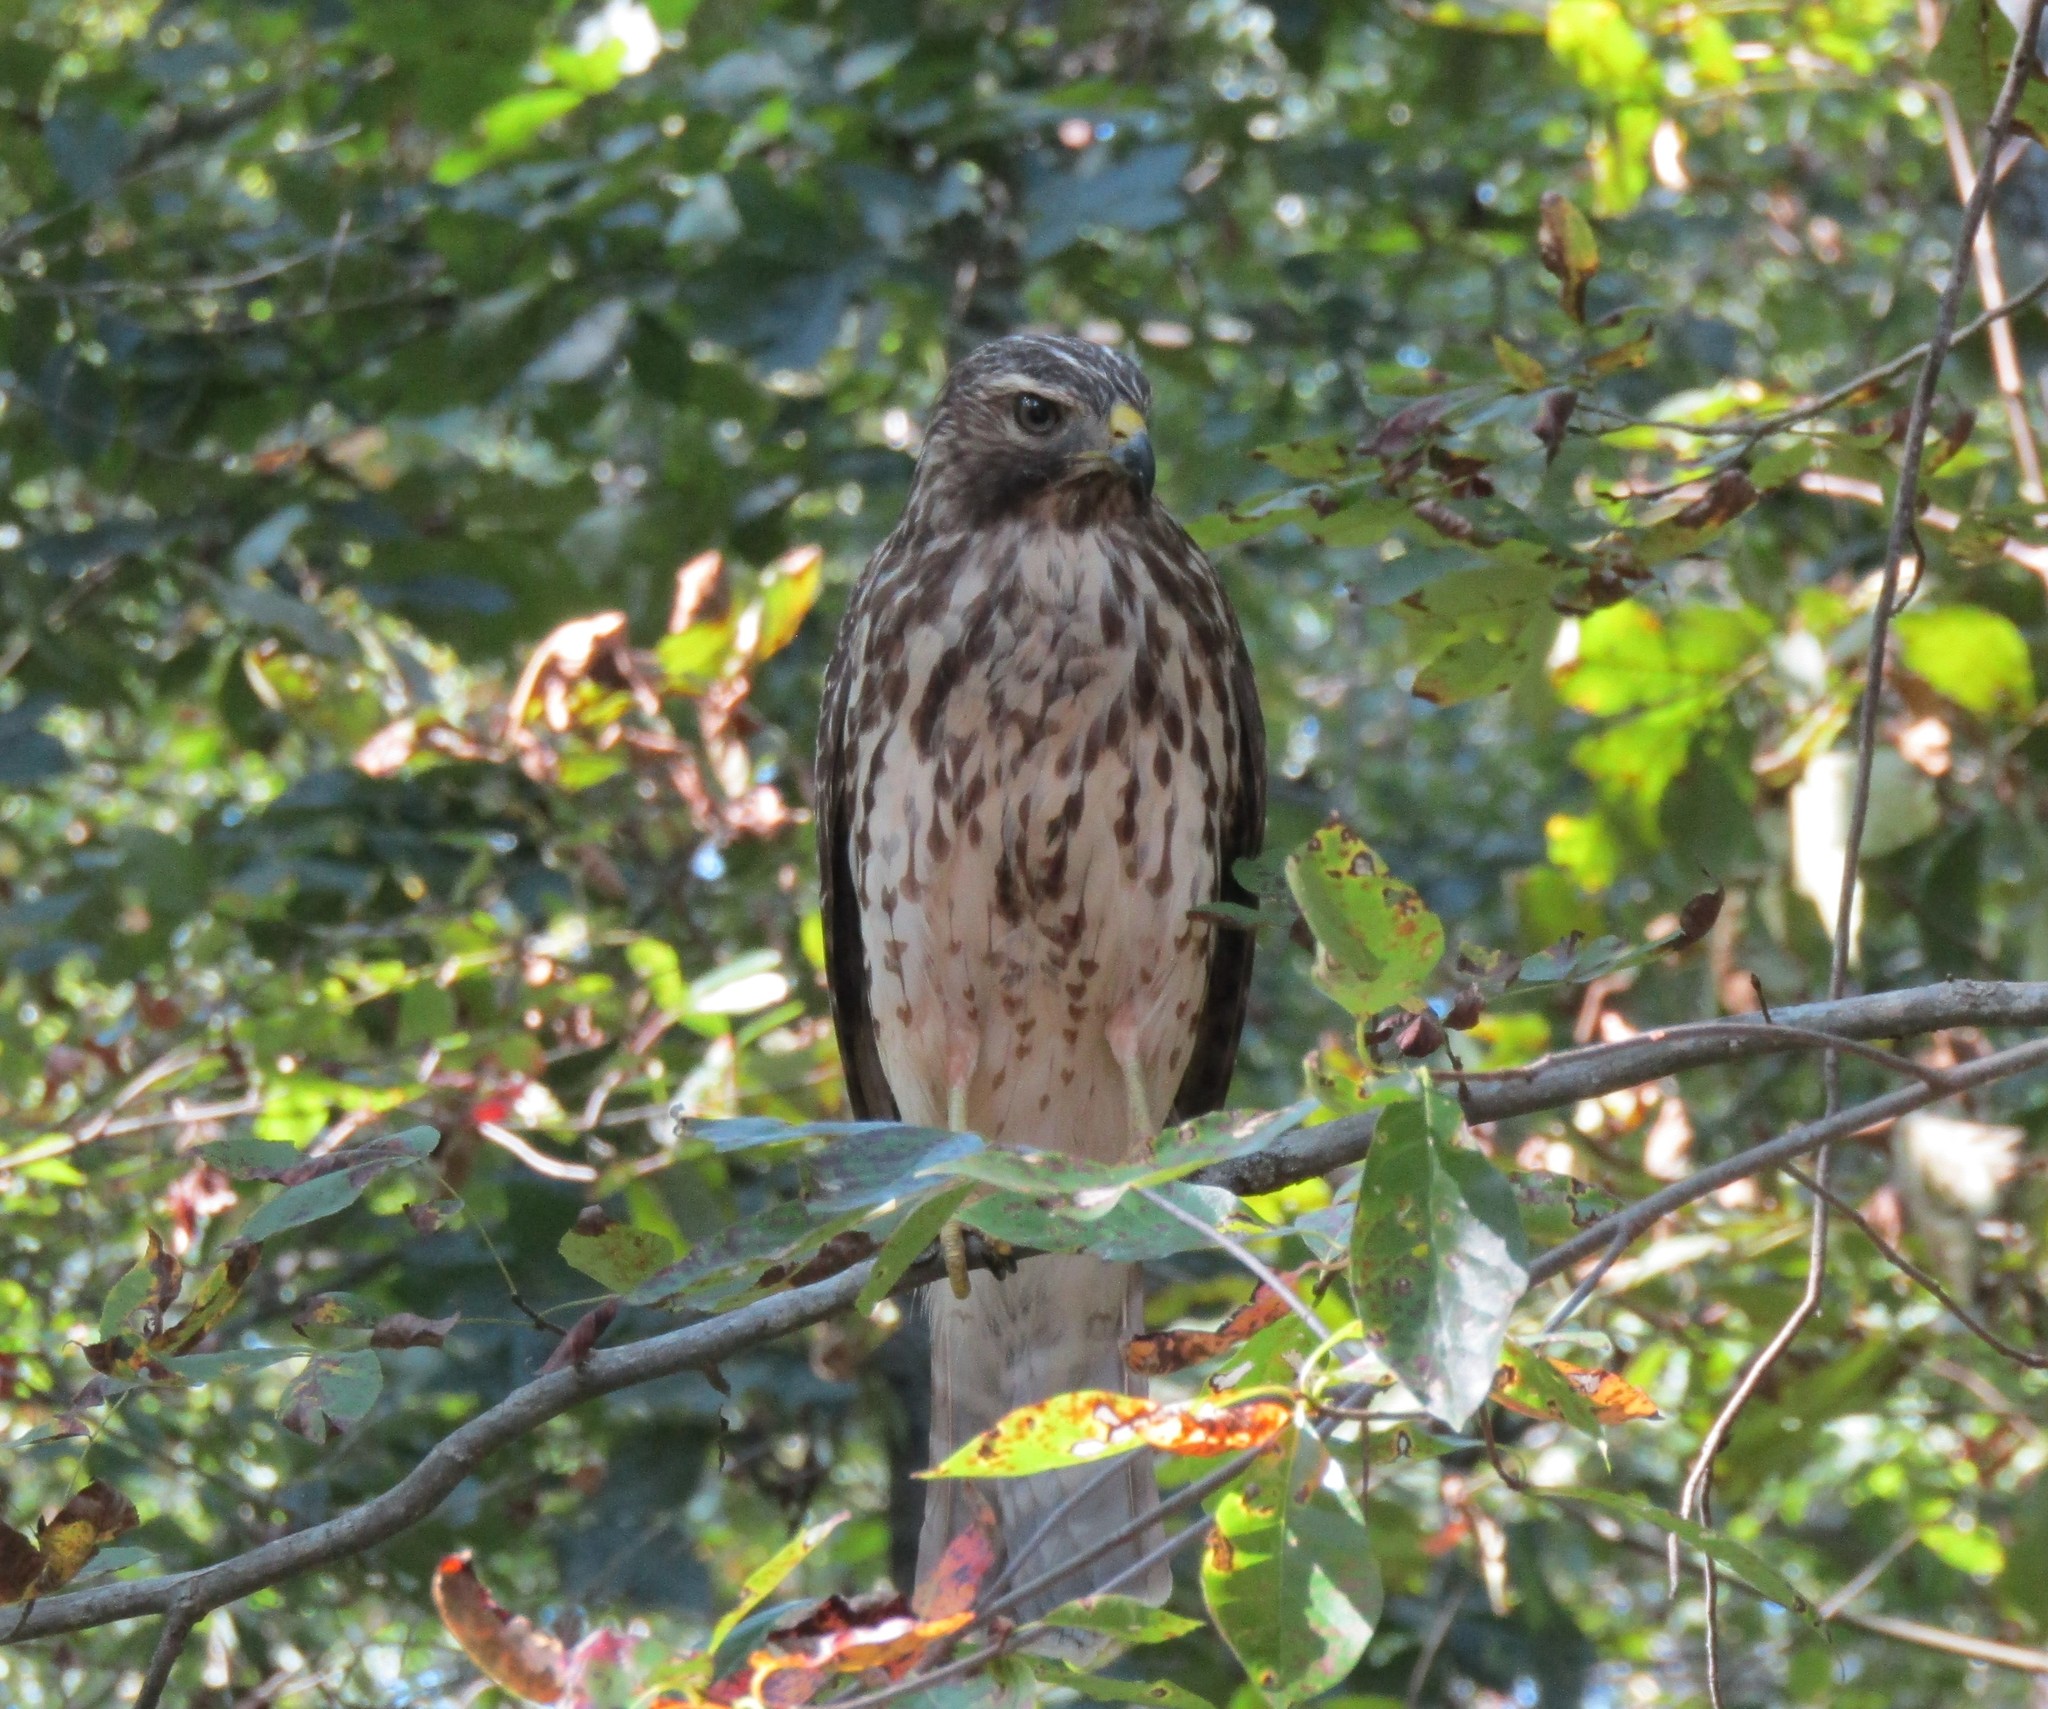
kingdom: Animalia
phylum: Chordata
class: Aves
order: Accipitriformes
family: Accipitridae
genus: Buteo
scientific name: Buteo lineatus
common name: Red-shouldered hawk
